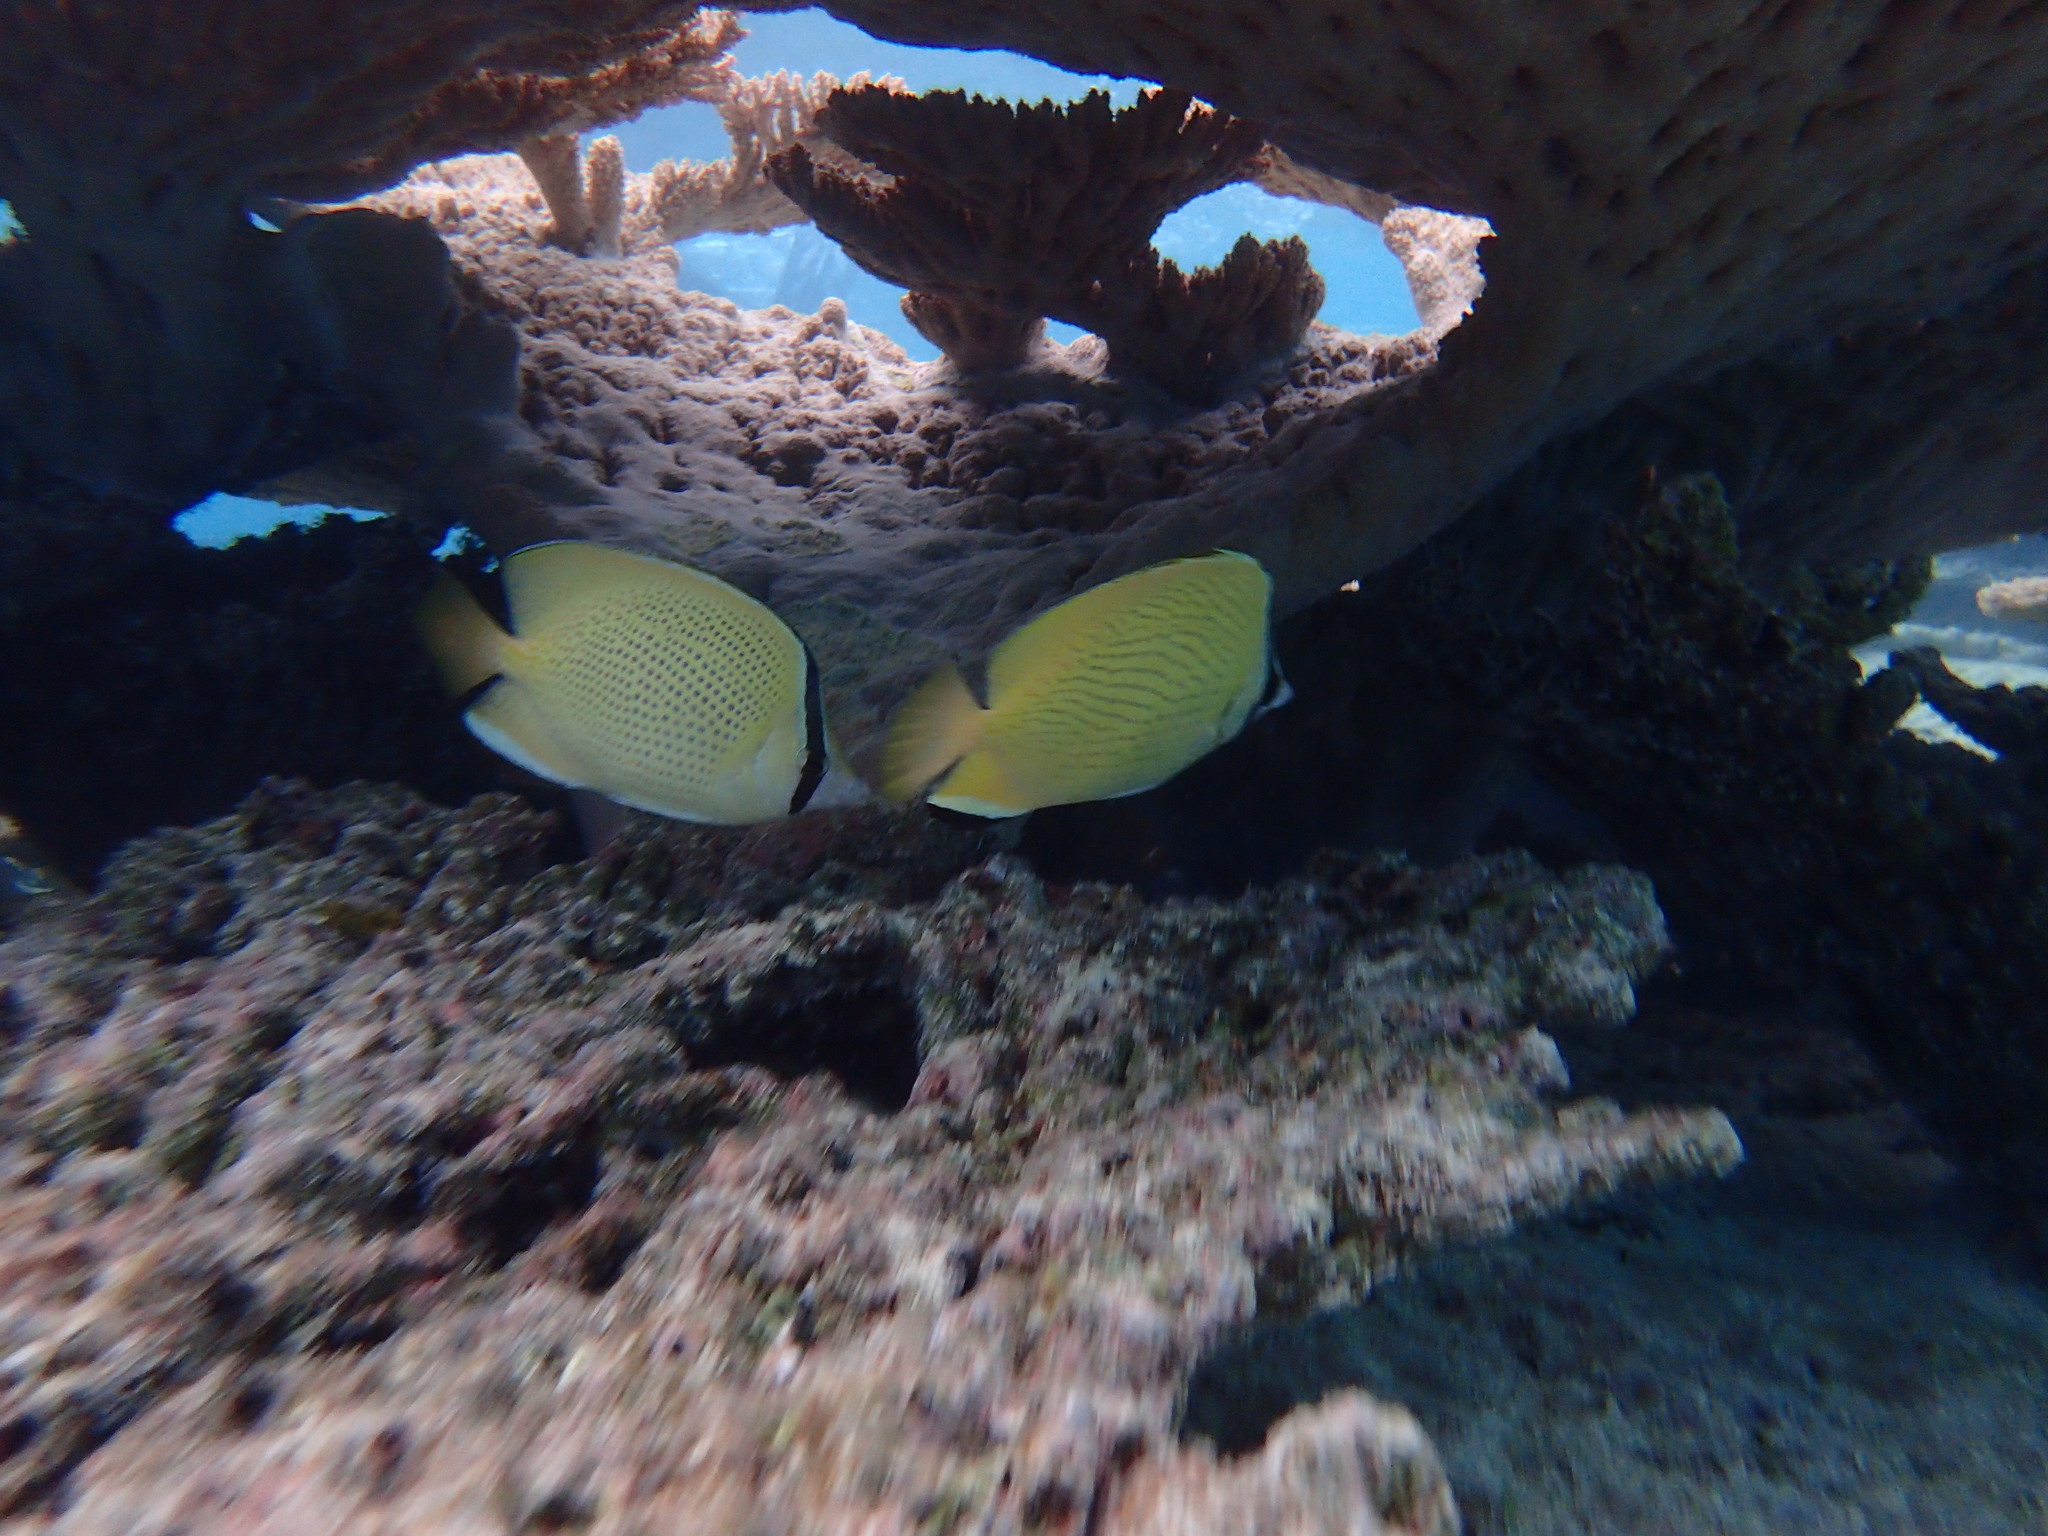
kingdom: Animalia
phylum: Chordata
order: Perciformes
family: Chaetodontidae
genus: Chaetodon
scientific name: Chaetodon citrinellus
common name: Speckled butterflyfish
